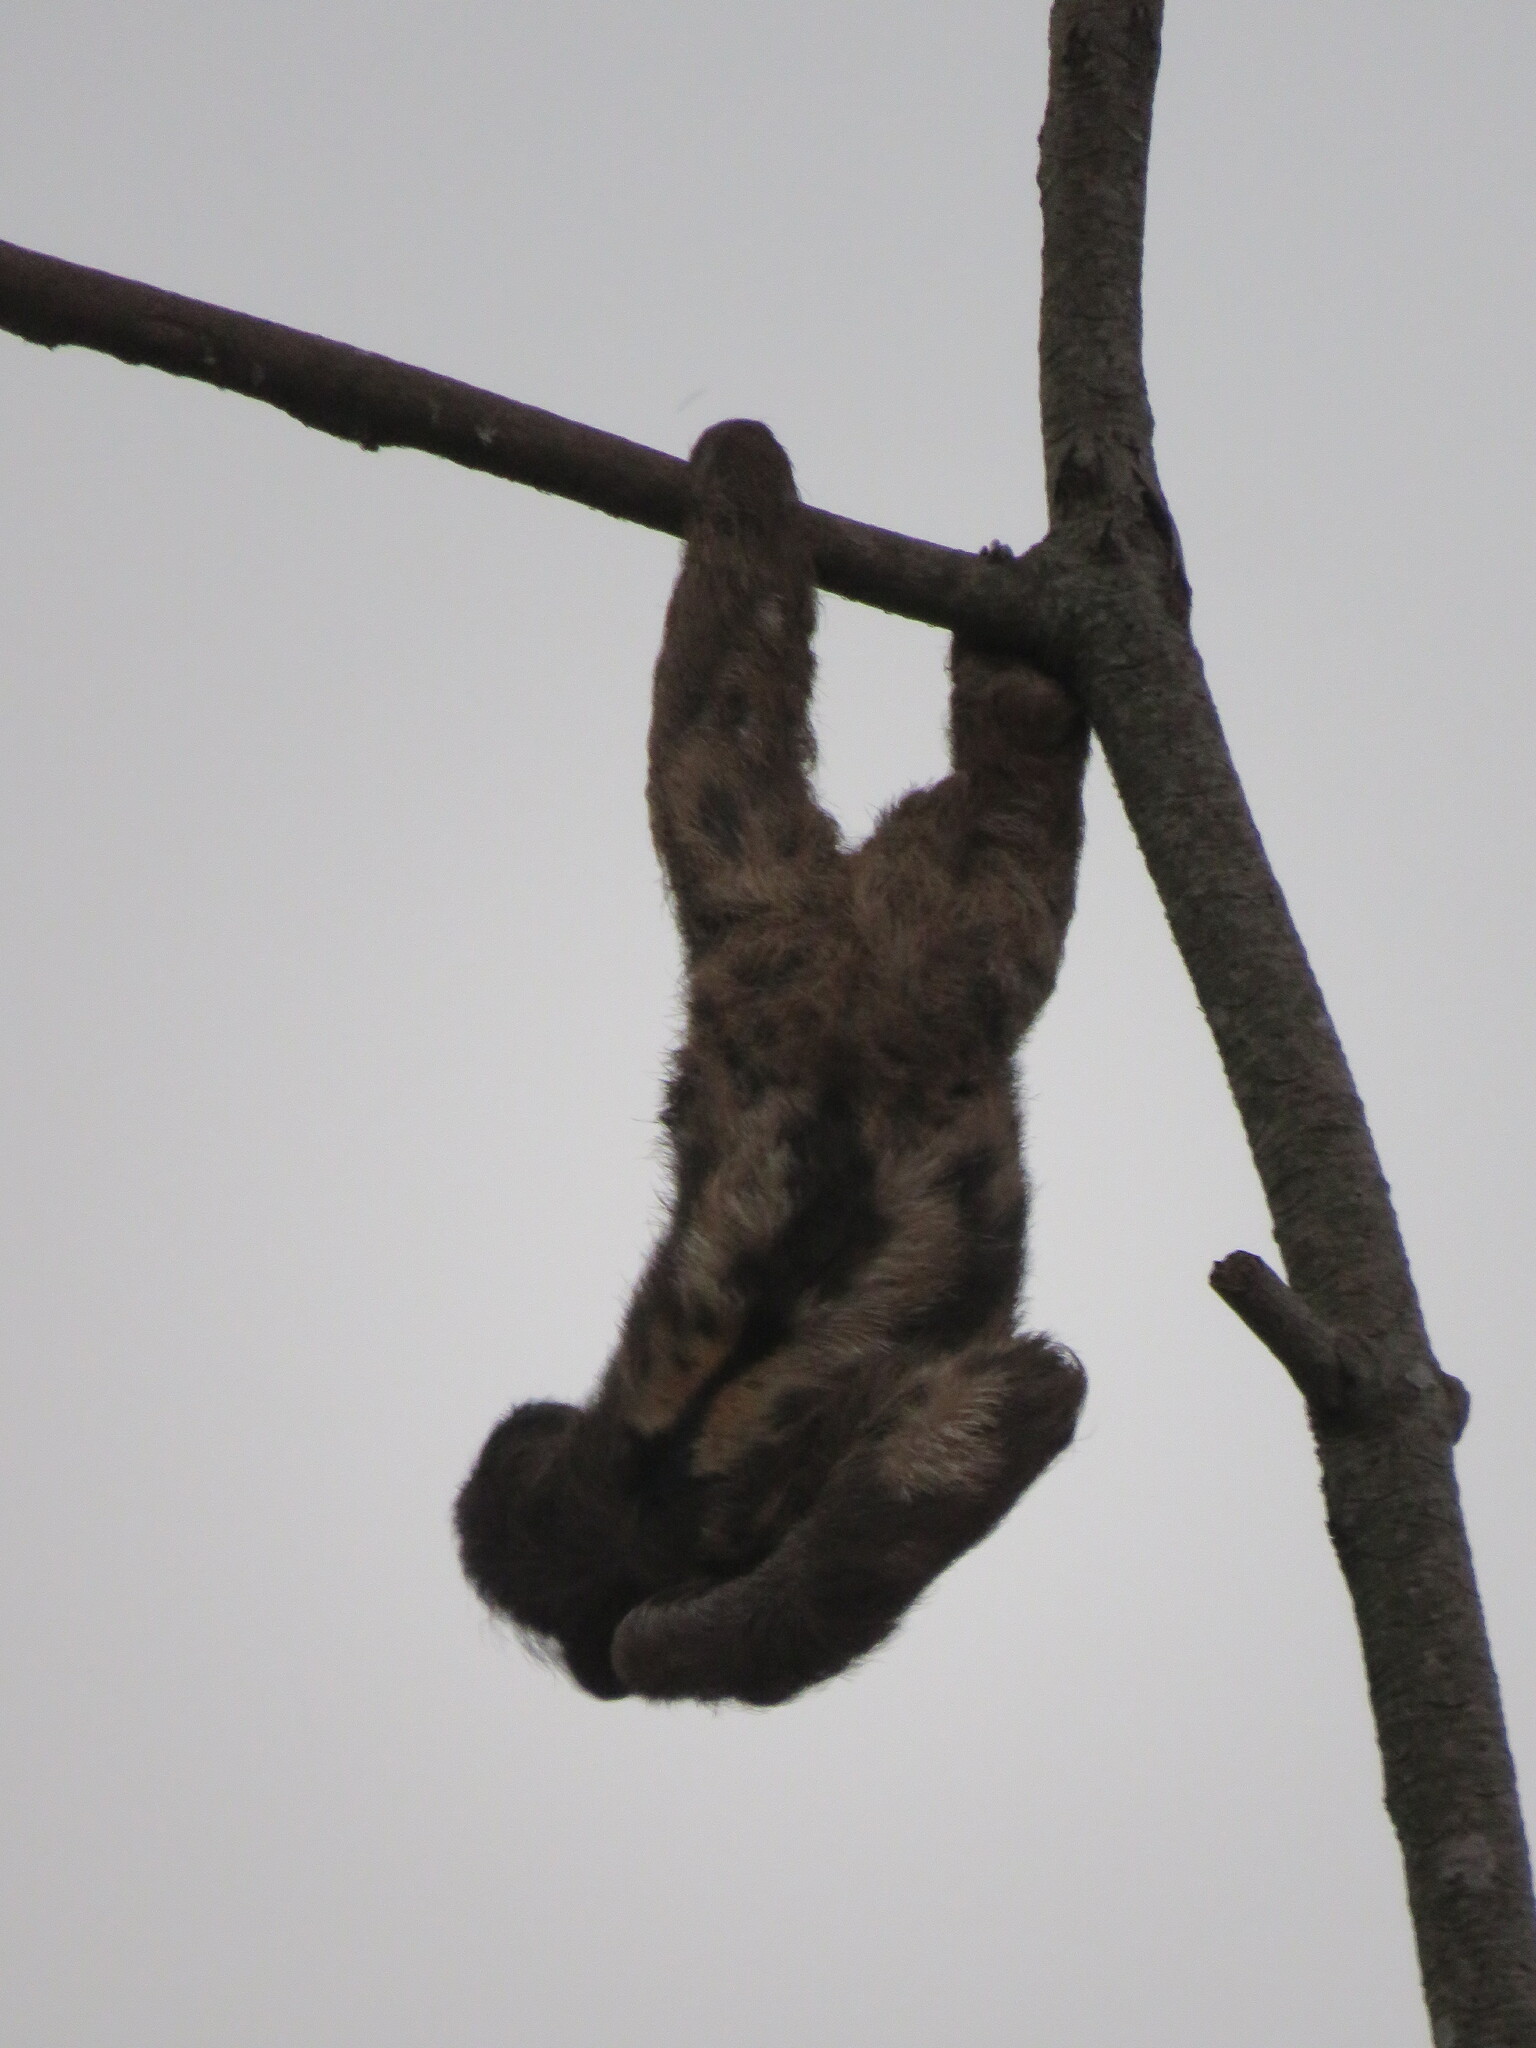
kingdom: Animalia
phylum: Chordata
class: Mammalia
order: Pilosa
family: Bradypodidae
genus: Bradypus
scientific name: Bradypus variegatus
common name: Brown-throated three-toed sloth
